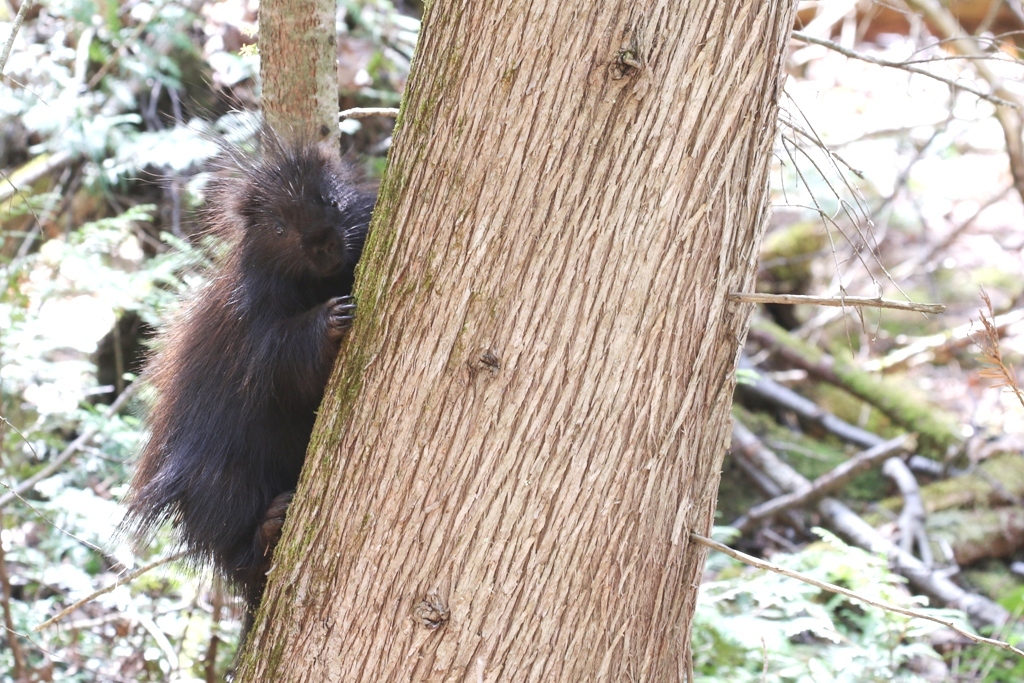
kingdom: Animalia
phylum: Chordata
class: Mammalia
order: Rodentia
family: Erethizontidae
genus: Erethizon
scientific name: Erethizon dorsatus
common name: North american porcupine
